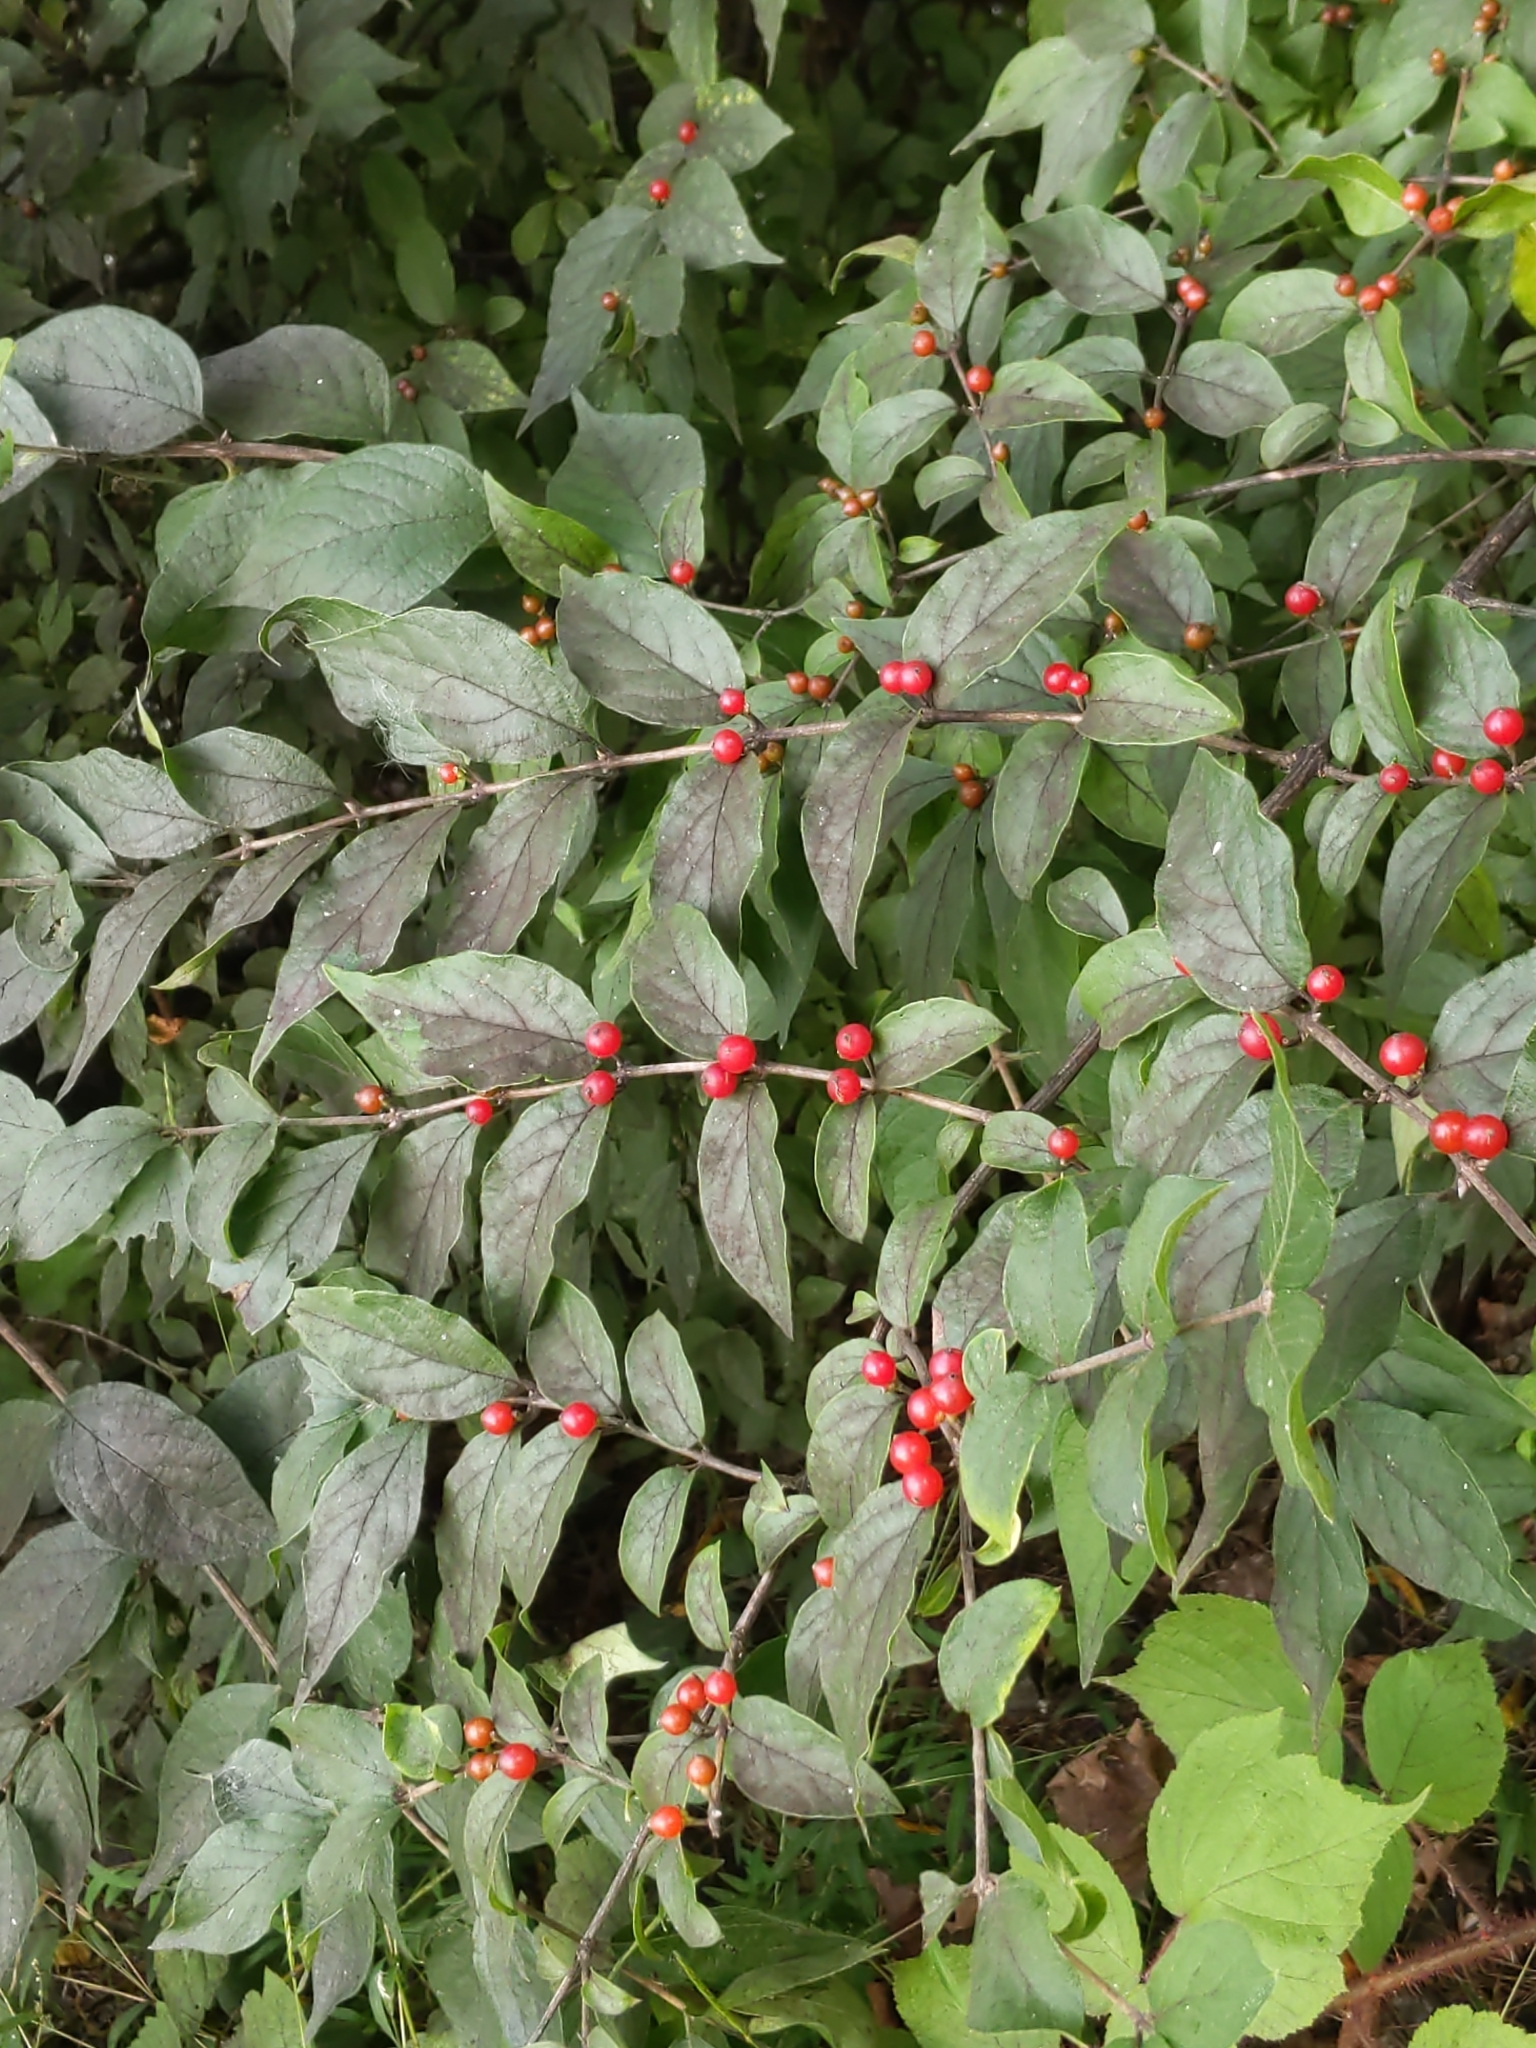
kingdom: Plantae
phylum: Tracheophyta
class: Magnoliopsida
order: Dipsacales
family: Caprifoliaceae
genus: Lonicera
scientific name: Lonicera maackii
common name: Amur honeysuckle
